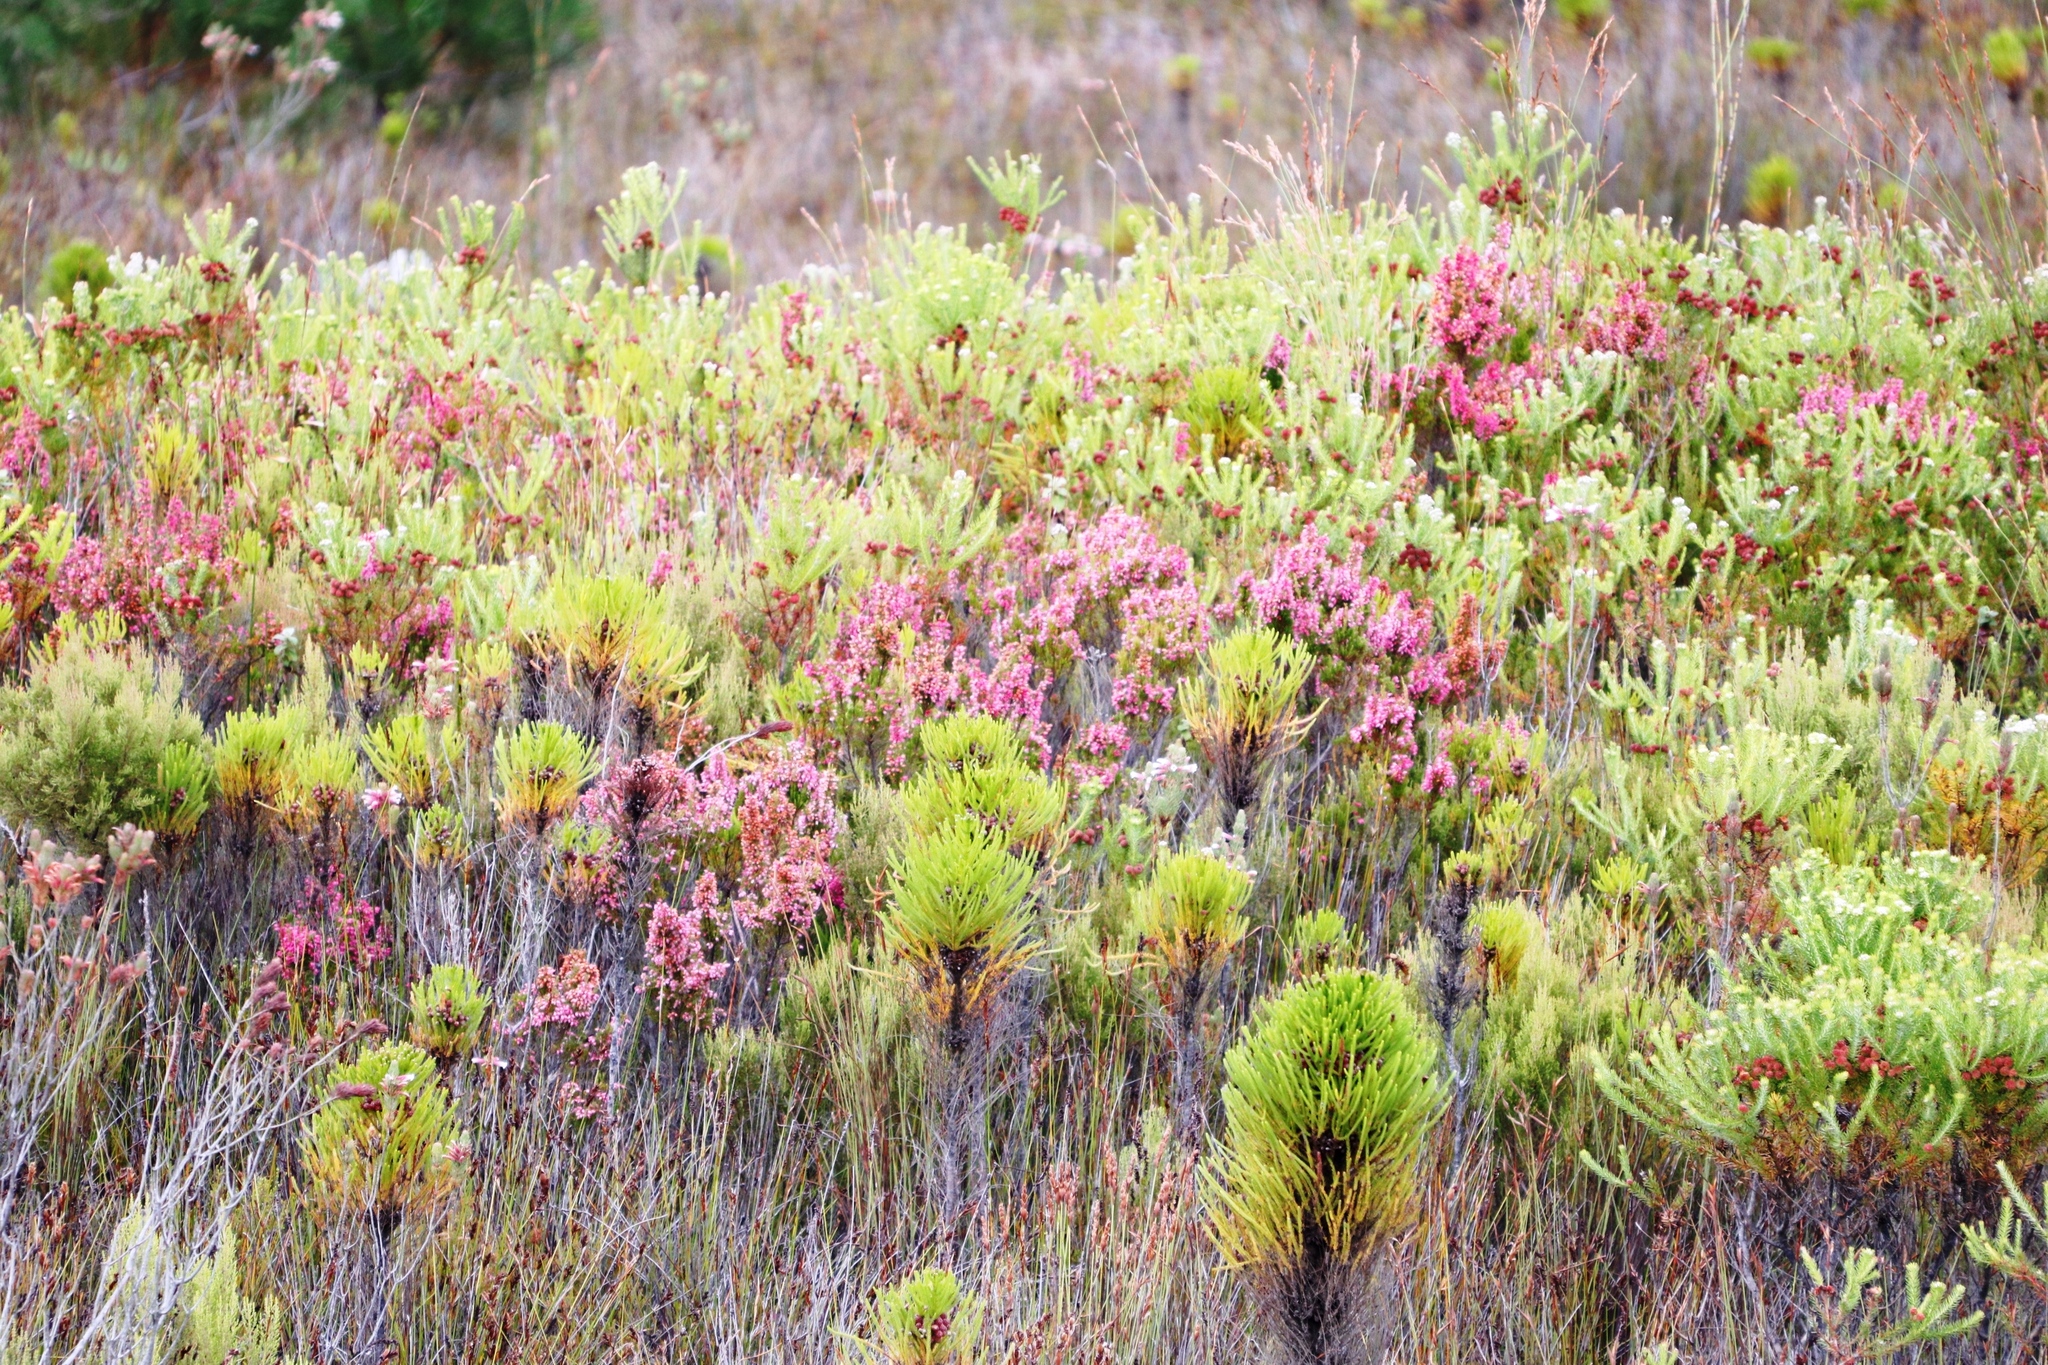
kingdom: Plantae
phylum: Tracheophyta
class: Magnoliopsida
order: Bruniales
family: Bruniaceae
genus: Berzelia
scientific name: Berzelia squarrosa
